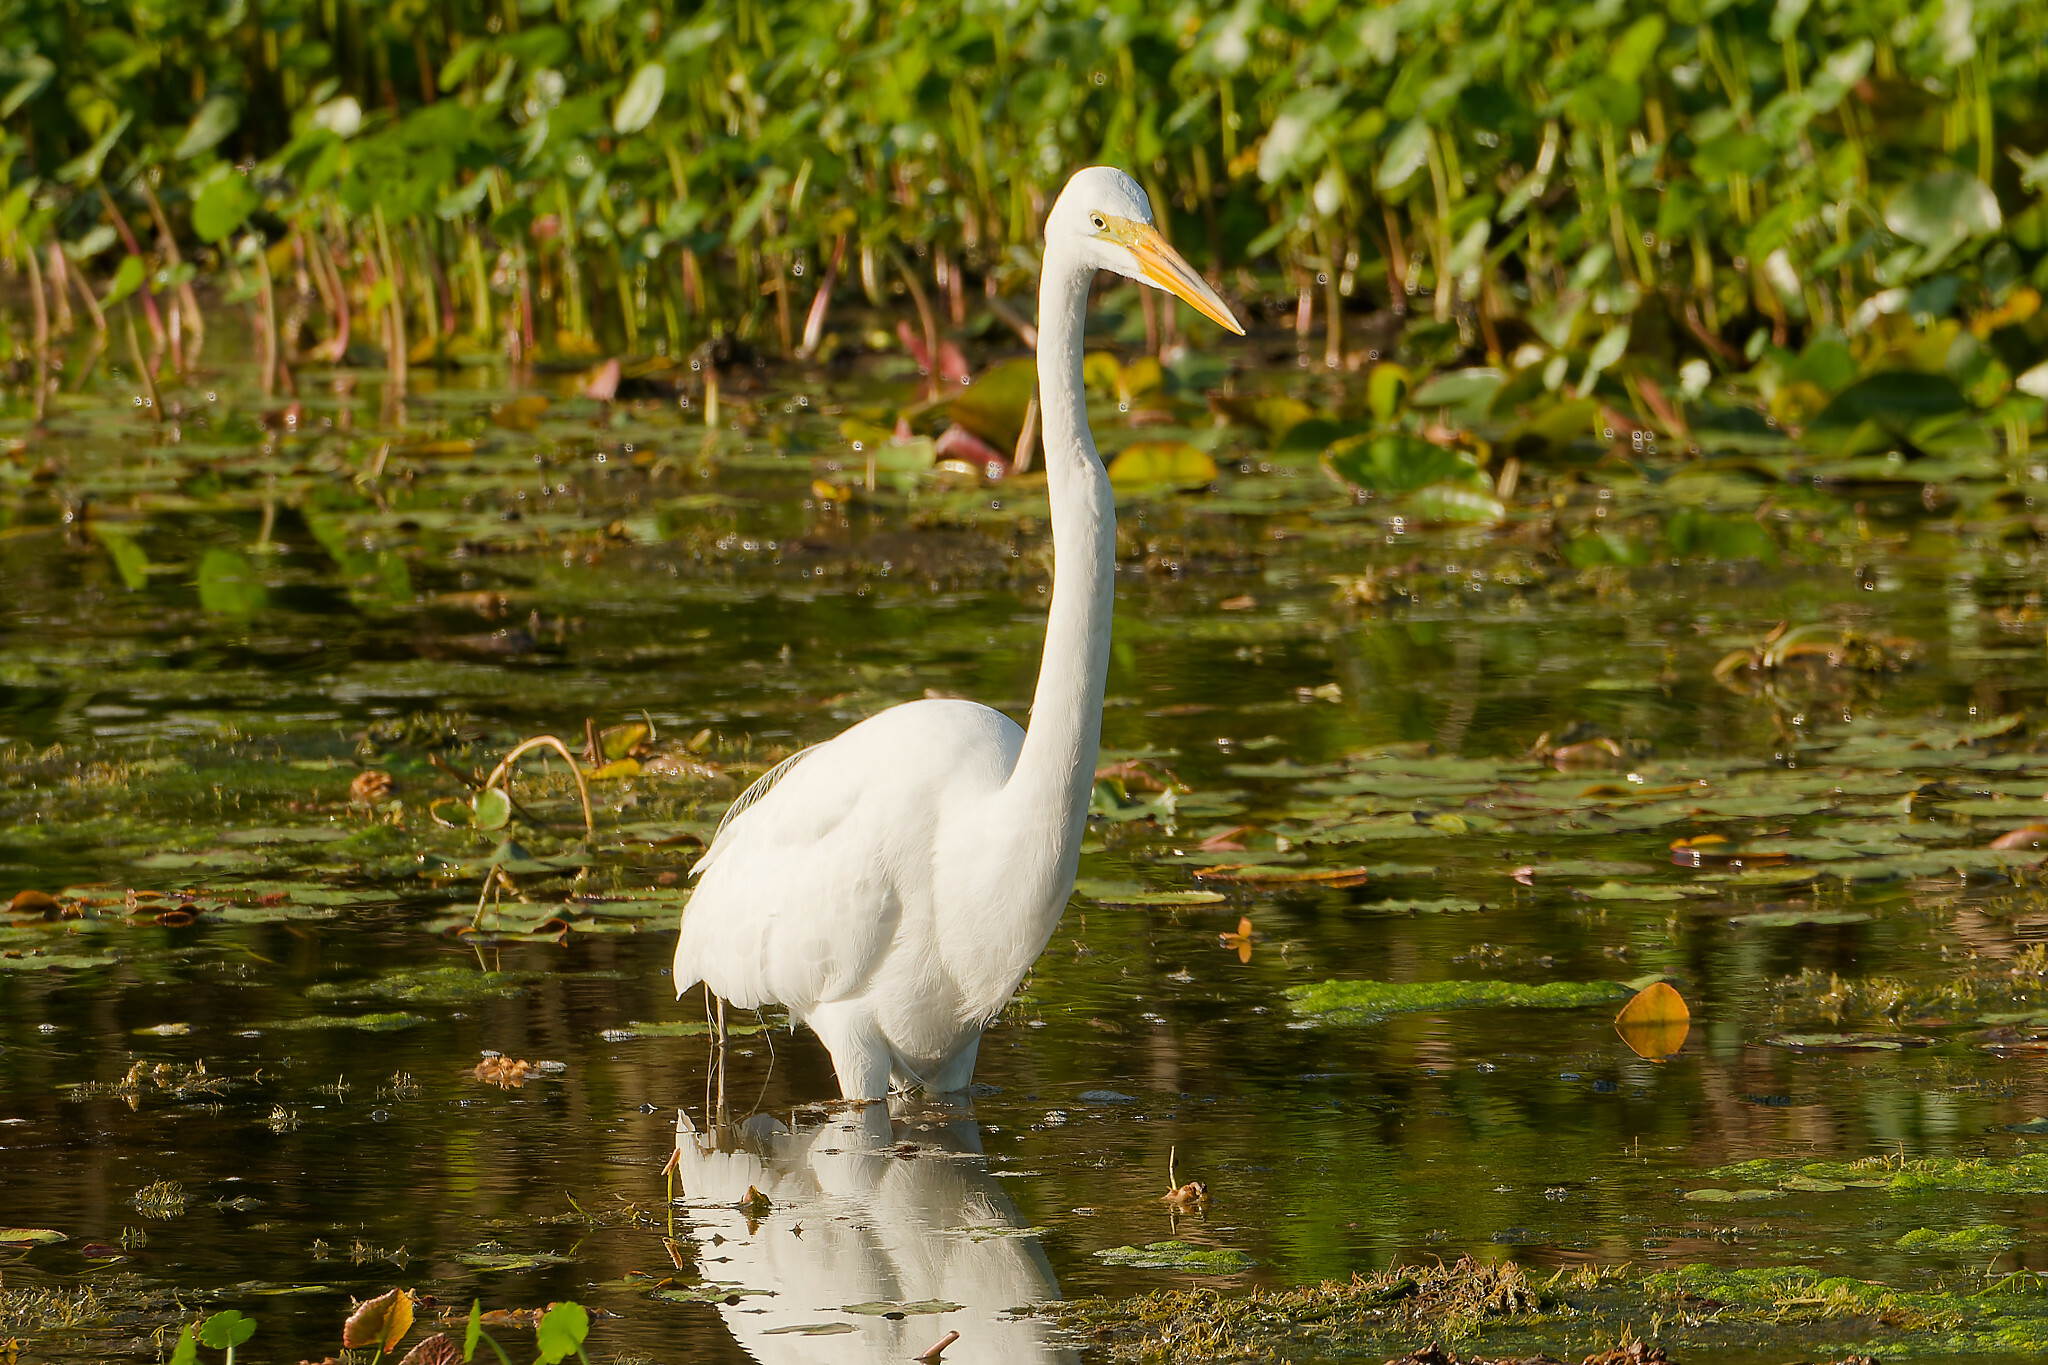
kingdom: Animalia
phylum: Chordata
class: Aves
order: Pelecaniformes
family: Ardeidae
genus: Ardea
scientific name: Ardea alba
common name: Great egret
